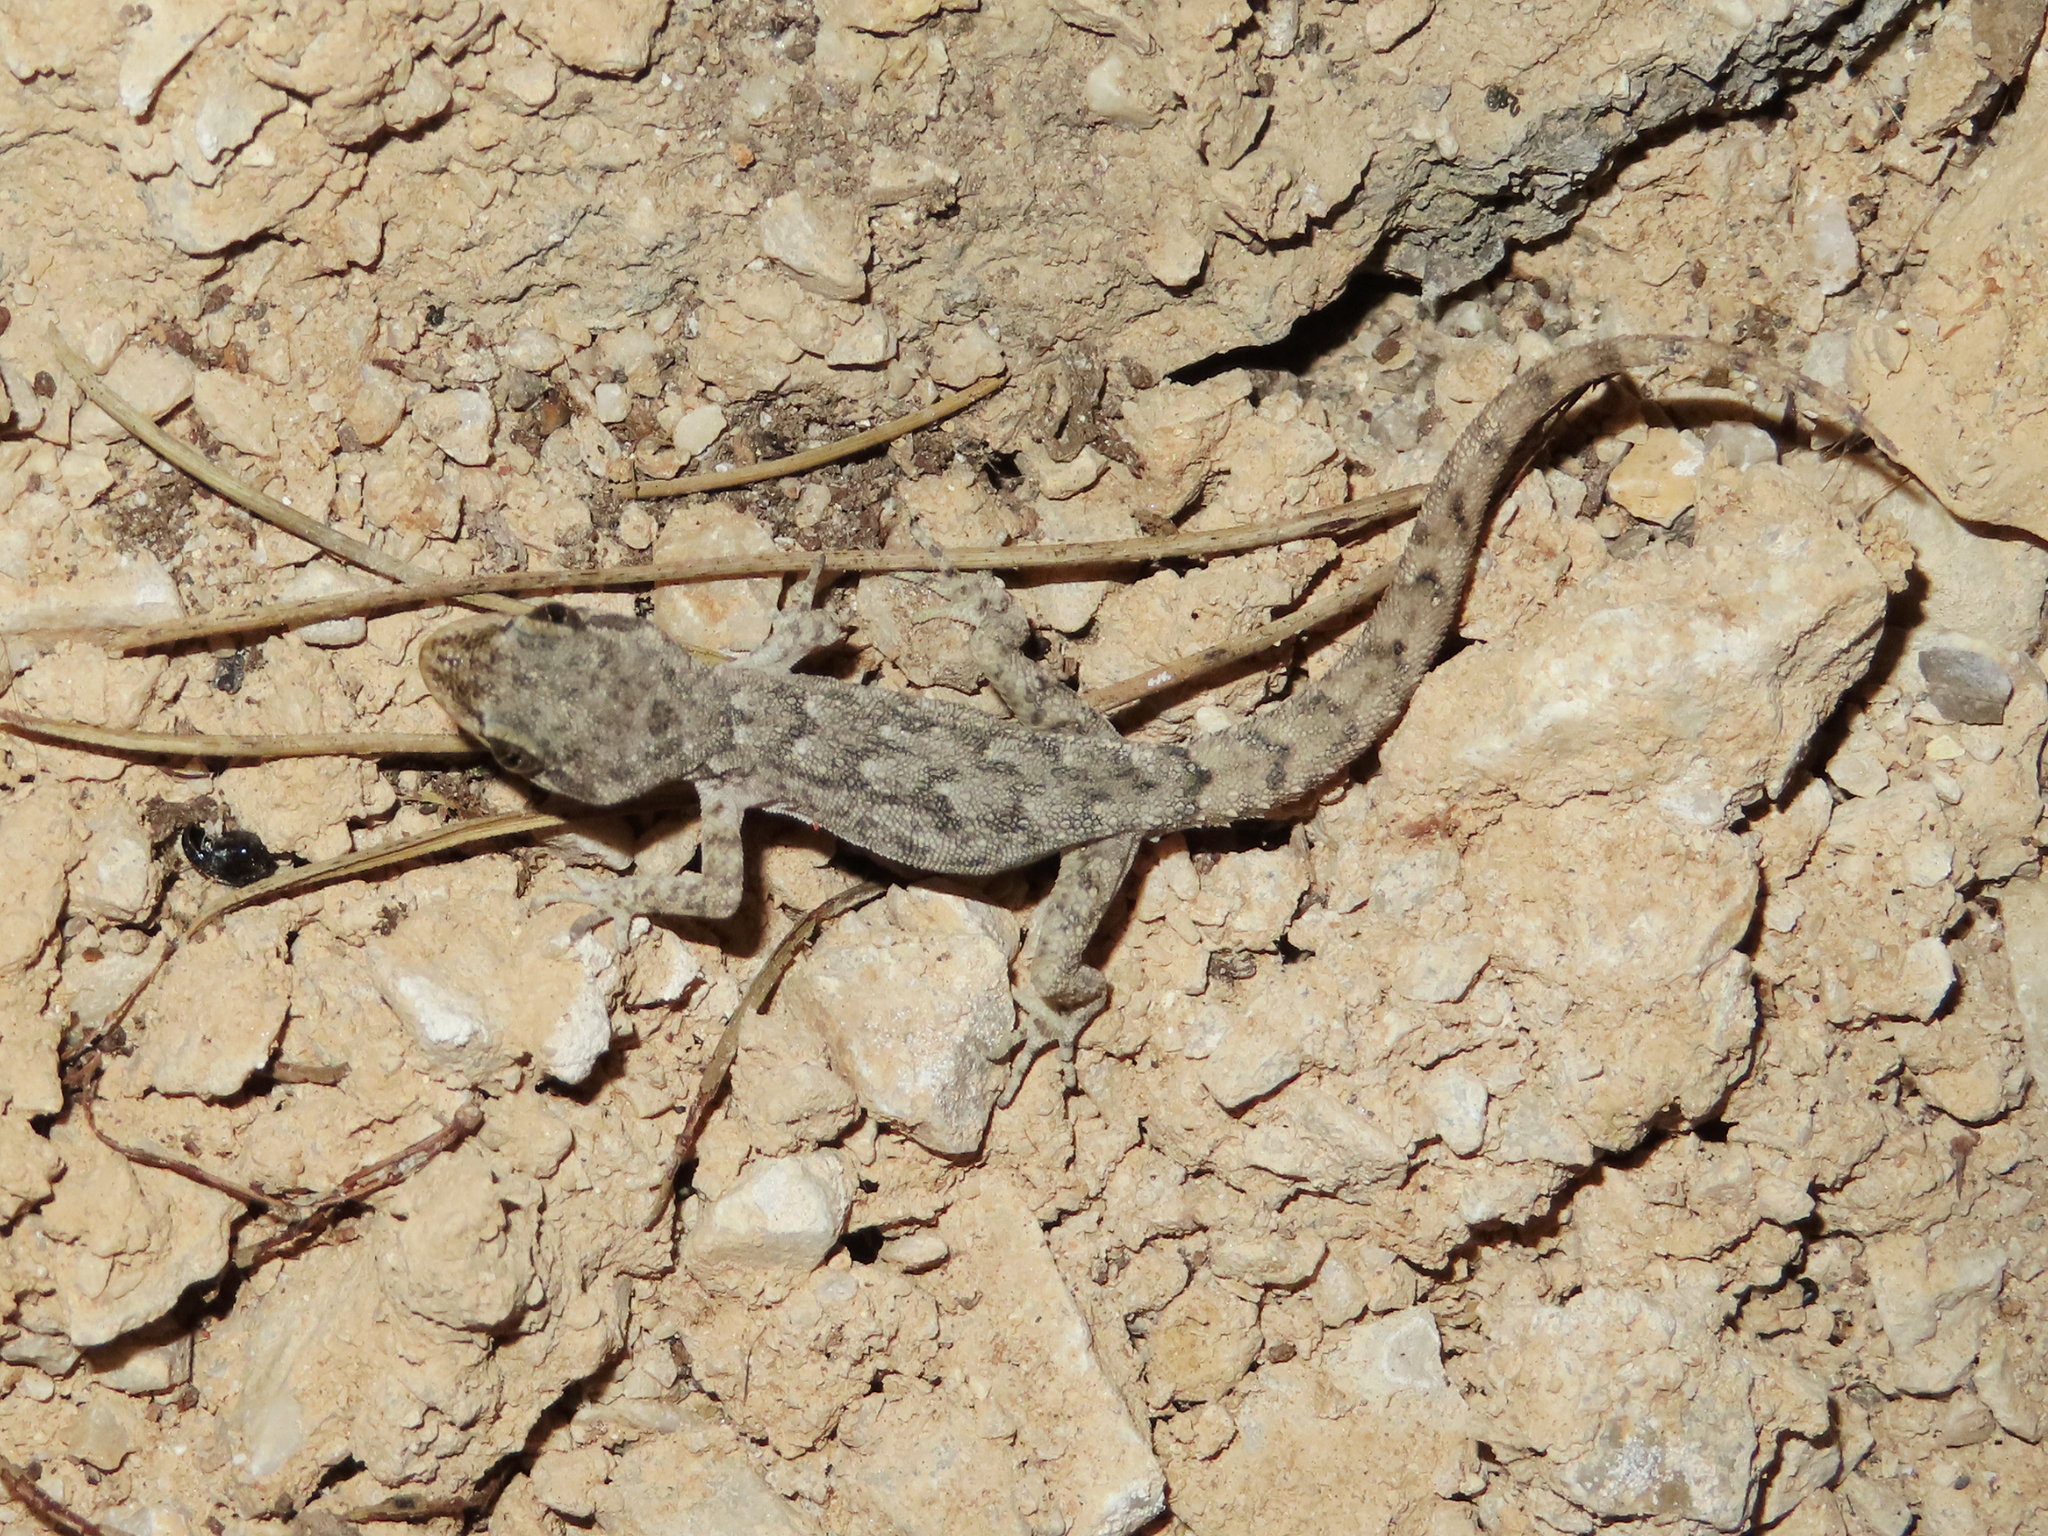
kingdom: Animalia
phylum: Chordata
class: Squamata
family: Gekkonidae
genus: Mediodactylus
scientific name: Mediodactylus oertzeni
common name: Mediterranean thin-toed gecko
